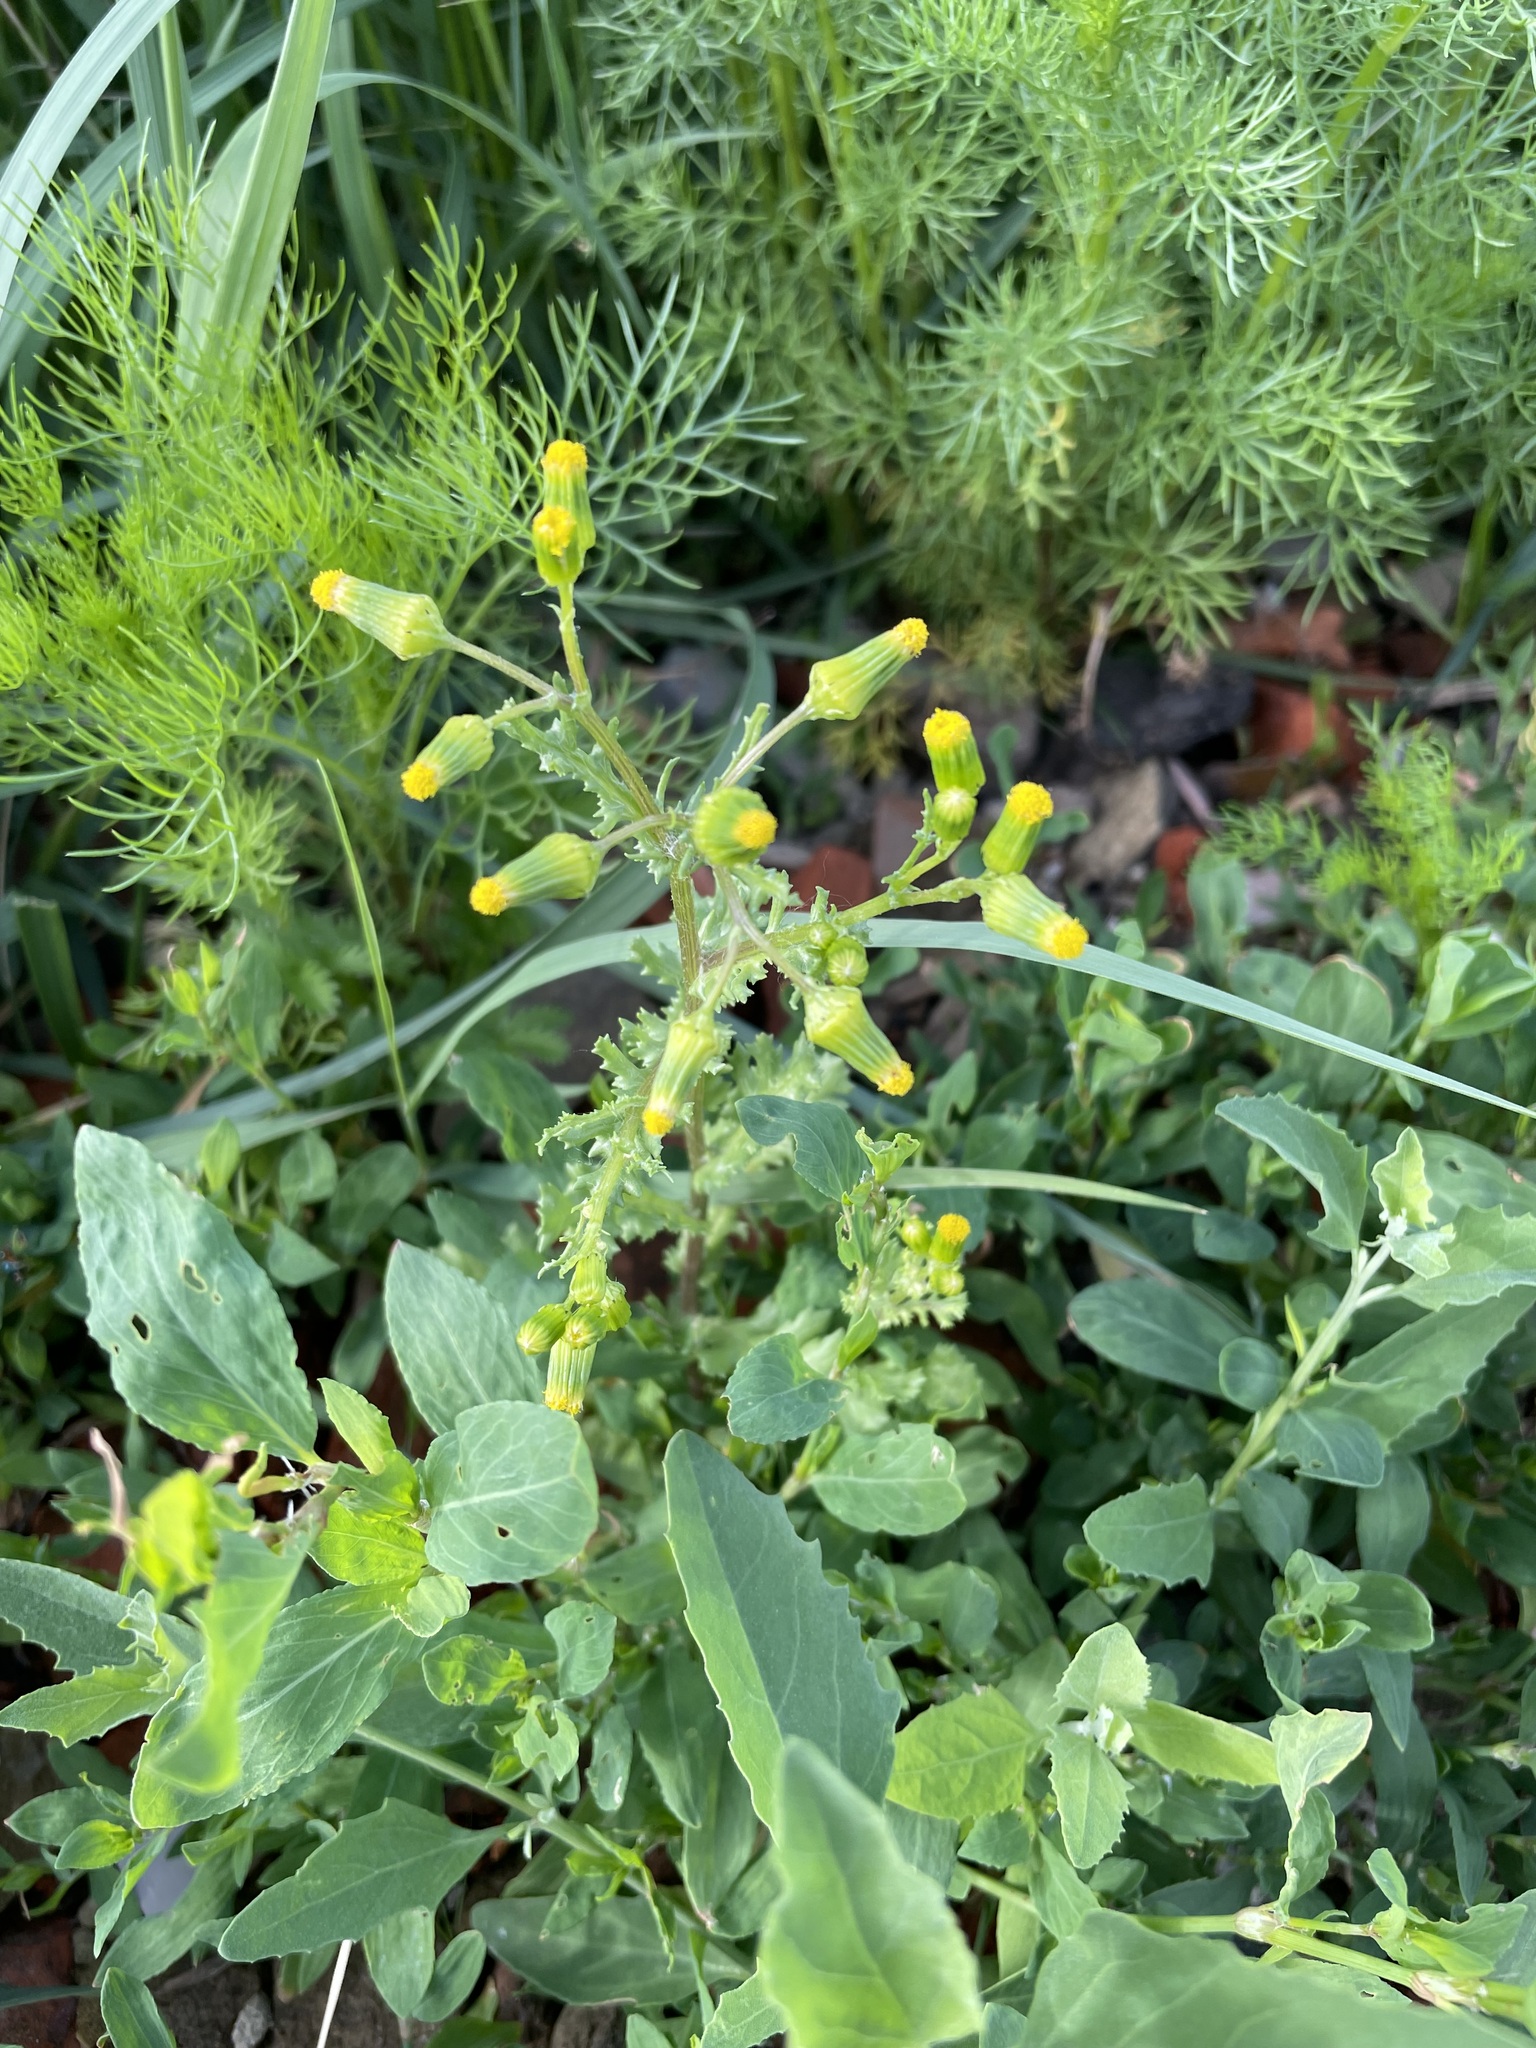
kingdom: Plantae
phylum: Tracheophyta
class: Magnoliopsida
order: Asterales
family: Asteraceae
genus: Senecio
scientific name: Senecio vulgaris
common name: Old-man-in-the-spring
